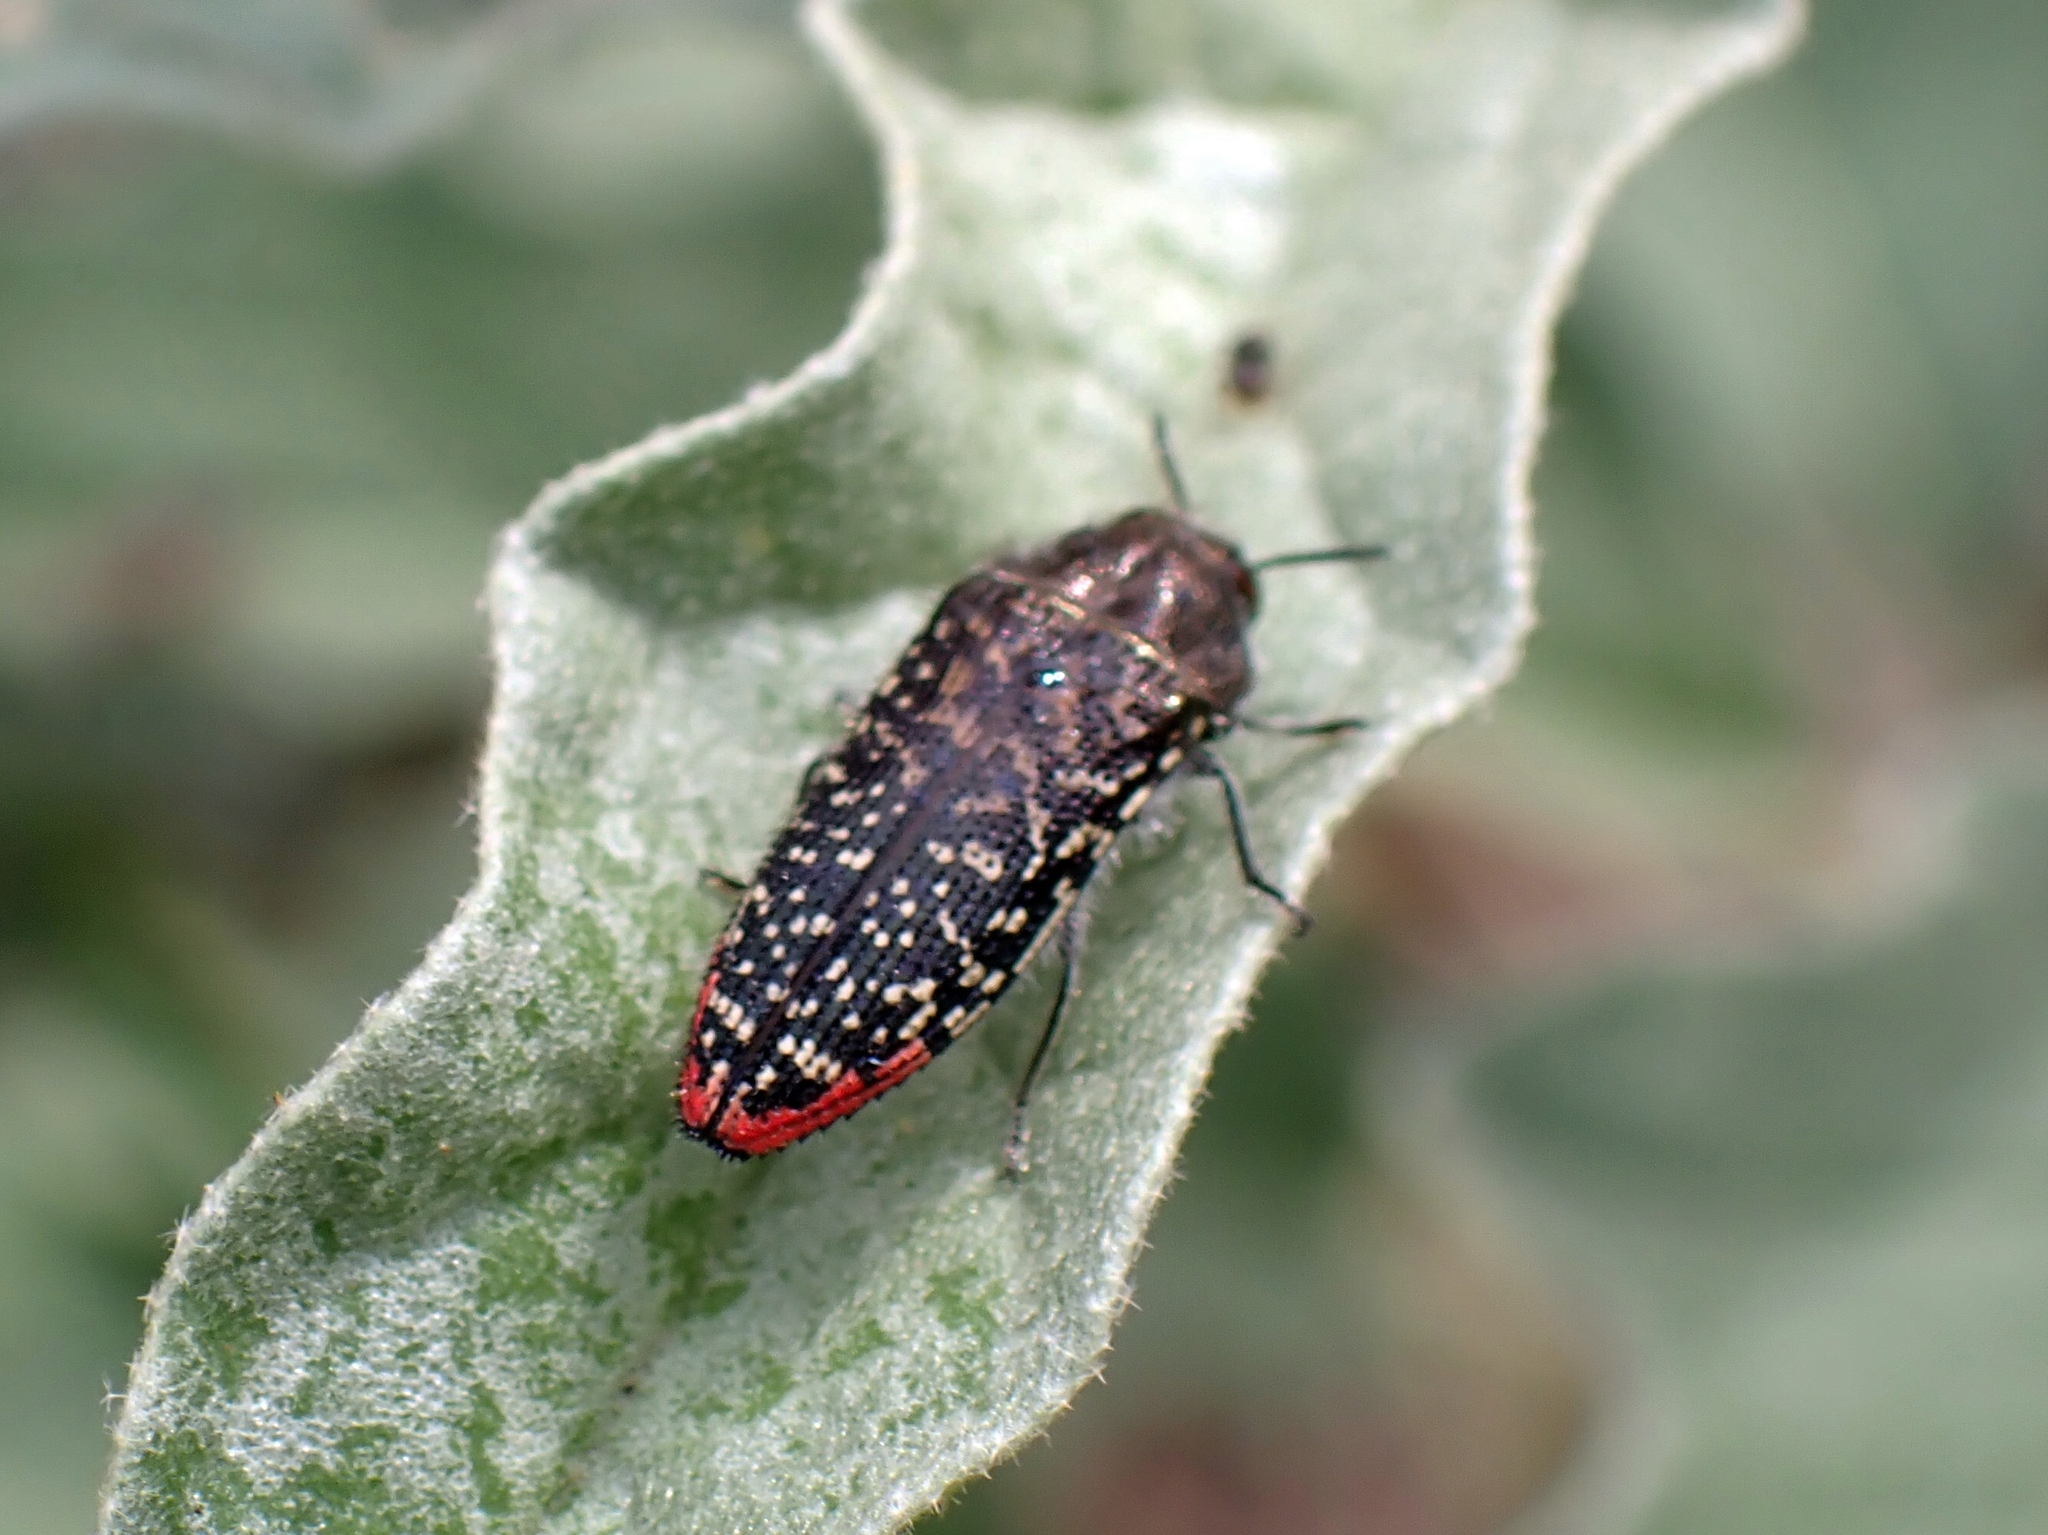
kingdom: Animalia
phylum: Arthropoda
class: Insecta
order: Coleoptera
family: Buprestidae
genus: Acmaeodera
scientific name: Acmaeodera haemorrhoa
